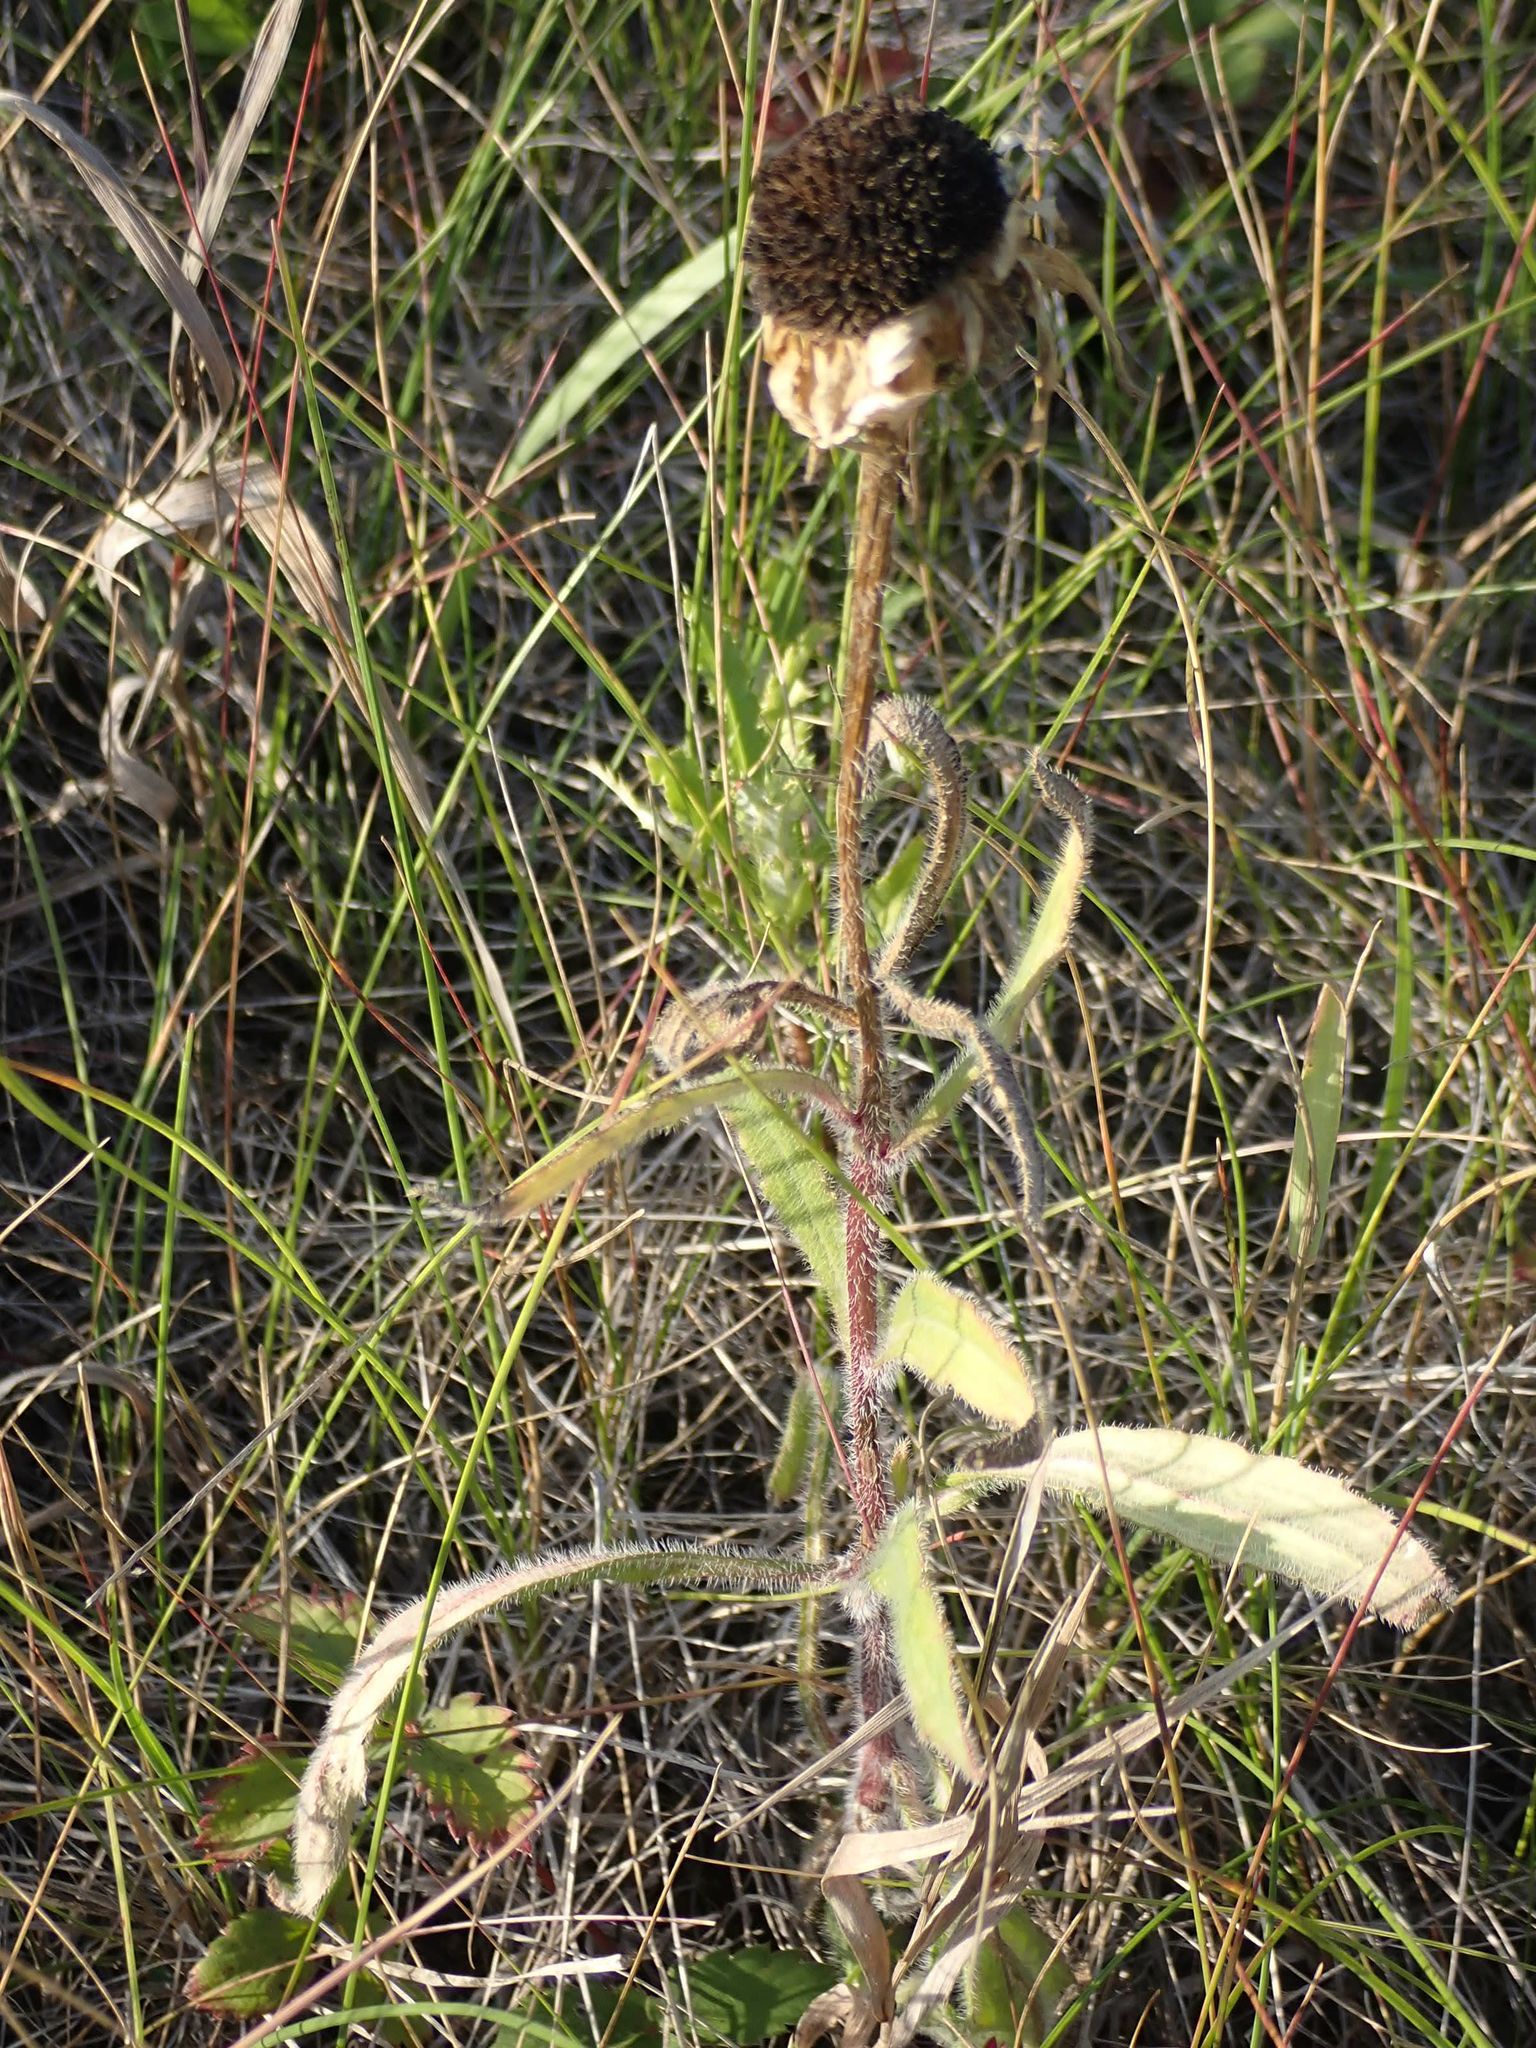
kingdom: Plantae
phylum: Tracheophyta
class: Magnoliopsida
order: Asterales
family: Asteraceae
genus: Rudbeckia
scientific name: Rudbeckia hirta
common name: Black-eyed-susan
